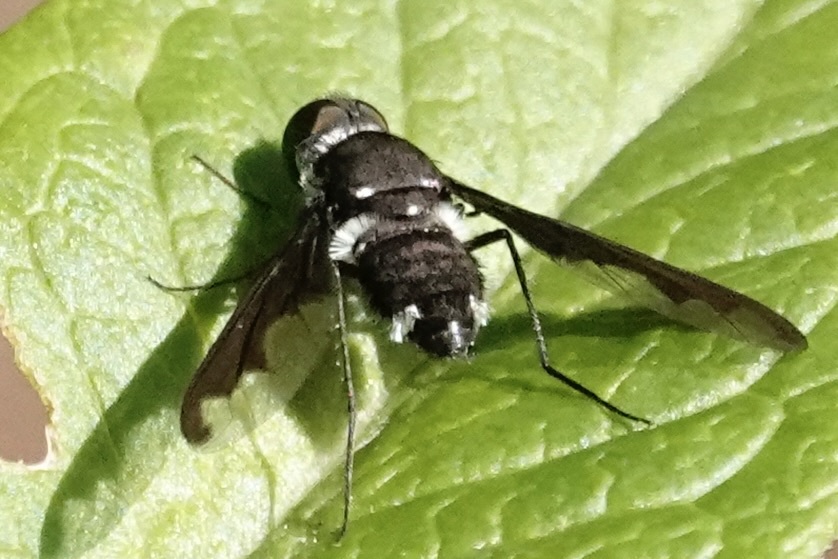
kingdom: Animalia
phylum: Arthropoda
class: Insecta
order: Diptera
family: Bombyliidae
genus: Anthrax
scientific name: Anthrax argyropygus
